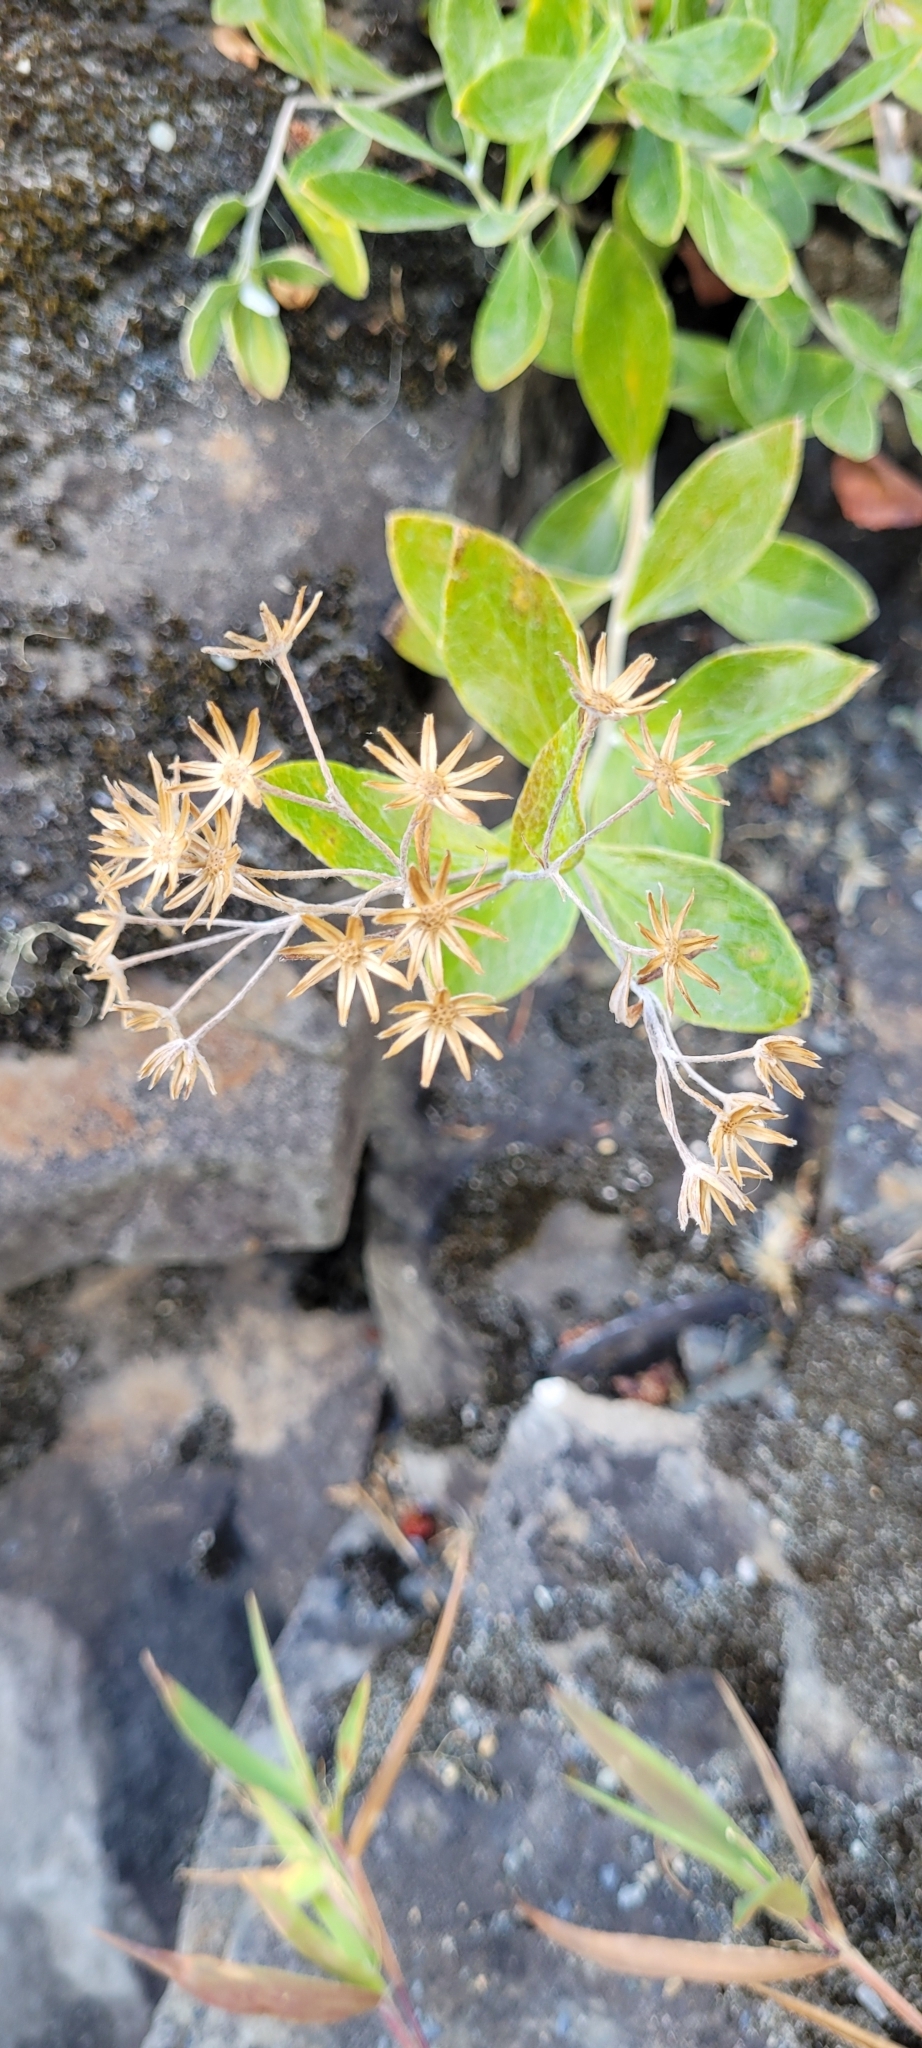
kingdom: Plantae
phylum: Tracheophyta
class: Magnoliopsida
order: Asterales
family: Asteraceae
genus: Luina
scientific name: Luina hypoleuca
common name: Little-leaved luina
